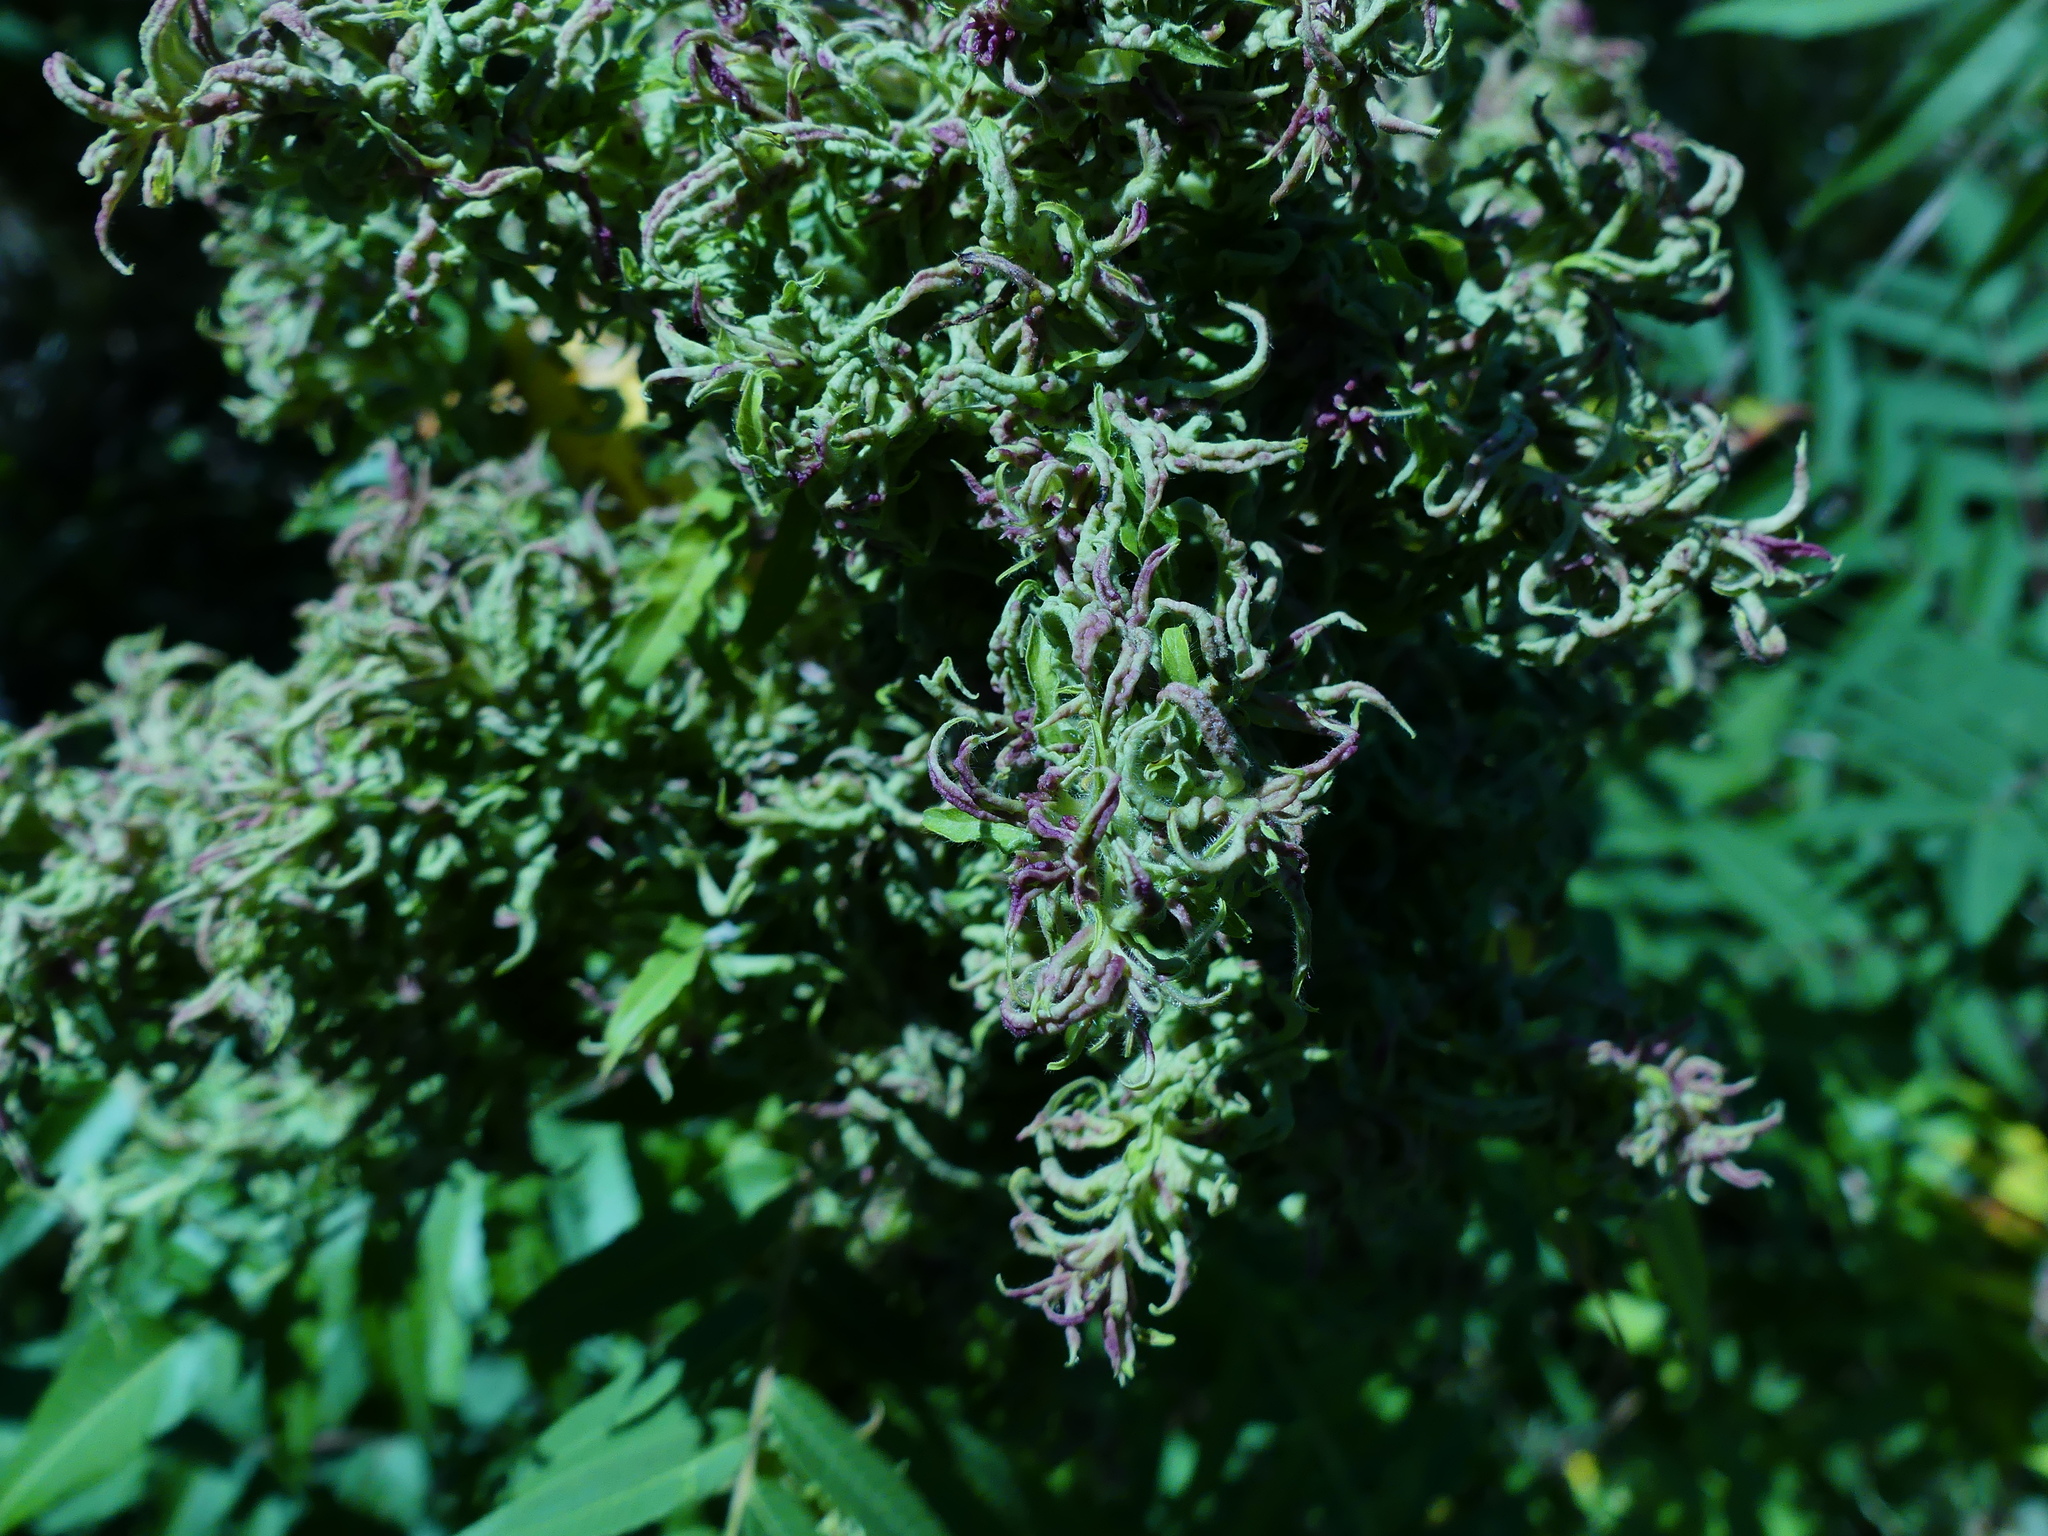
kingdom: Plantae
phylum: Tracheophyta
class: Magnoliopsida
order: Sapindales
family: Anacardiaceae
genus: Rhus
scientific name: Rhus typhina
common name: Staghorn sumac
